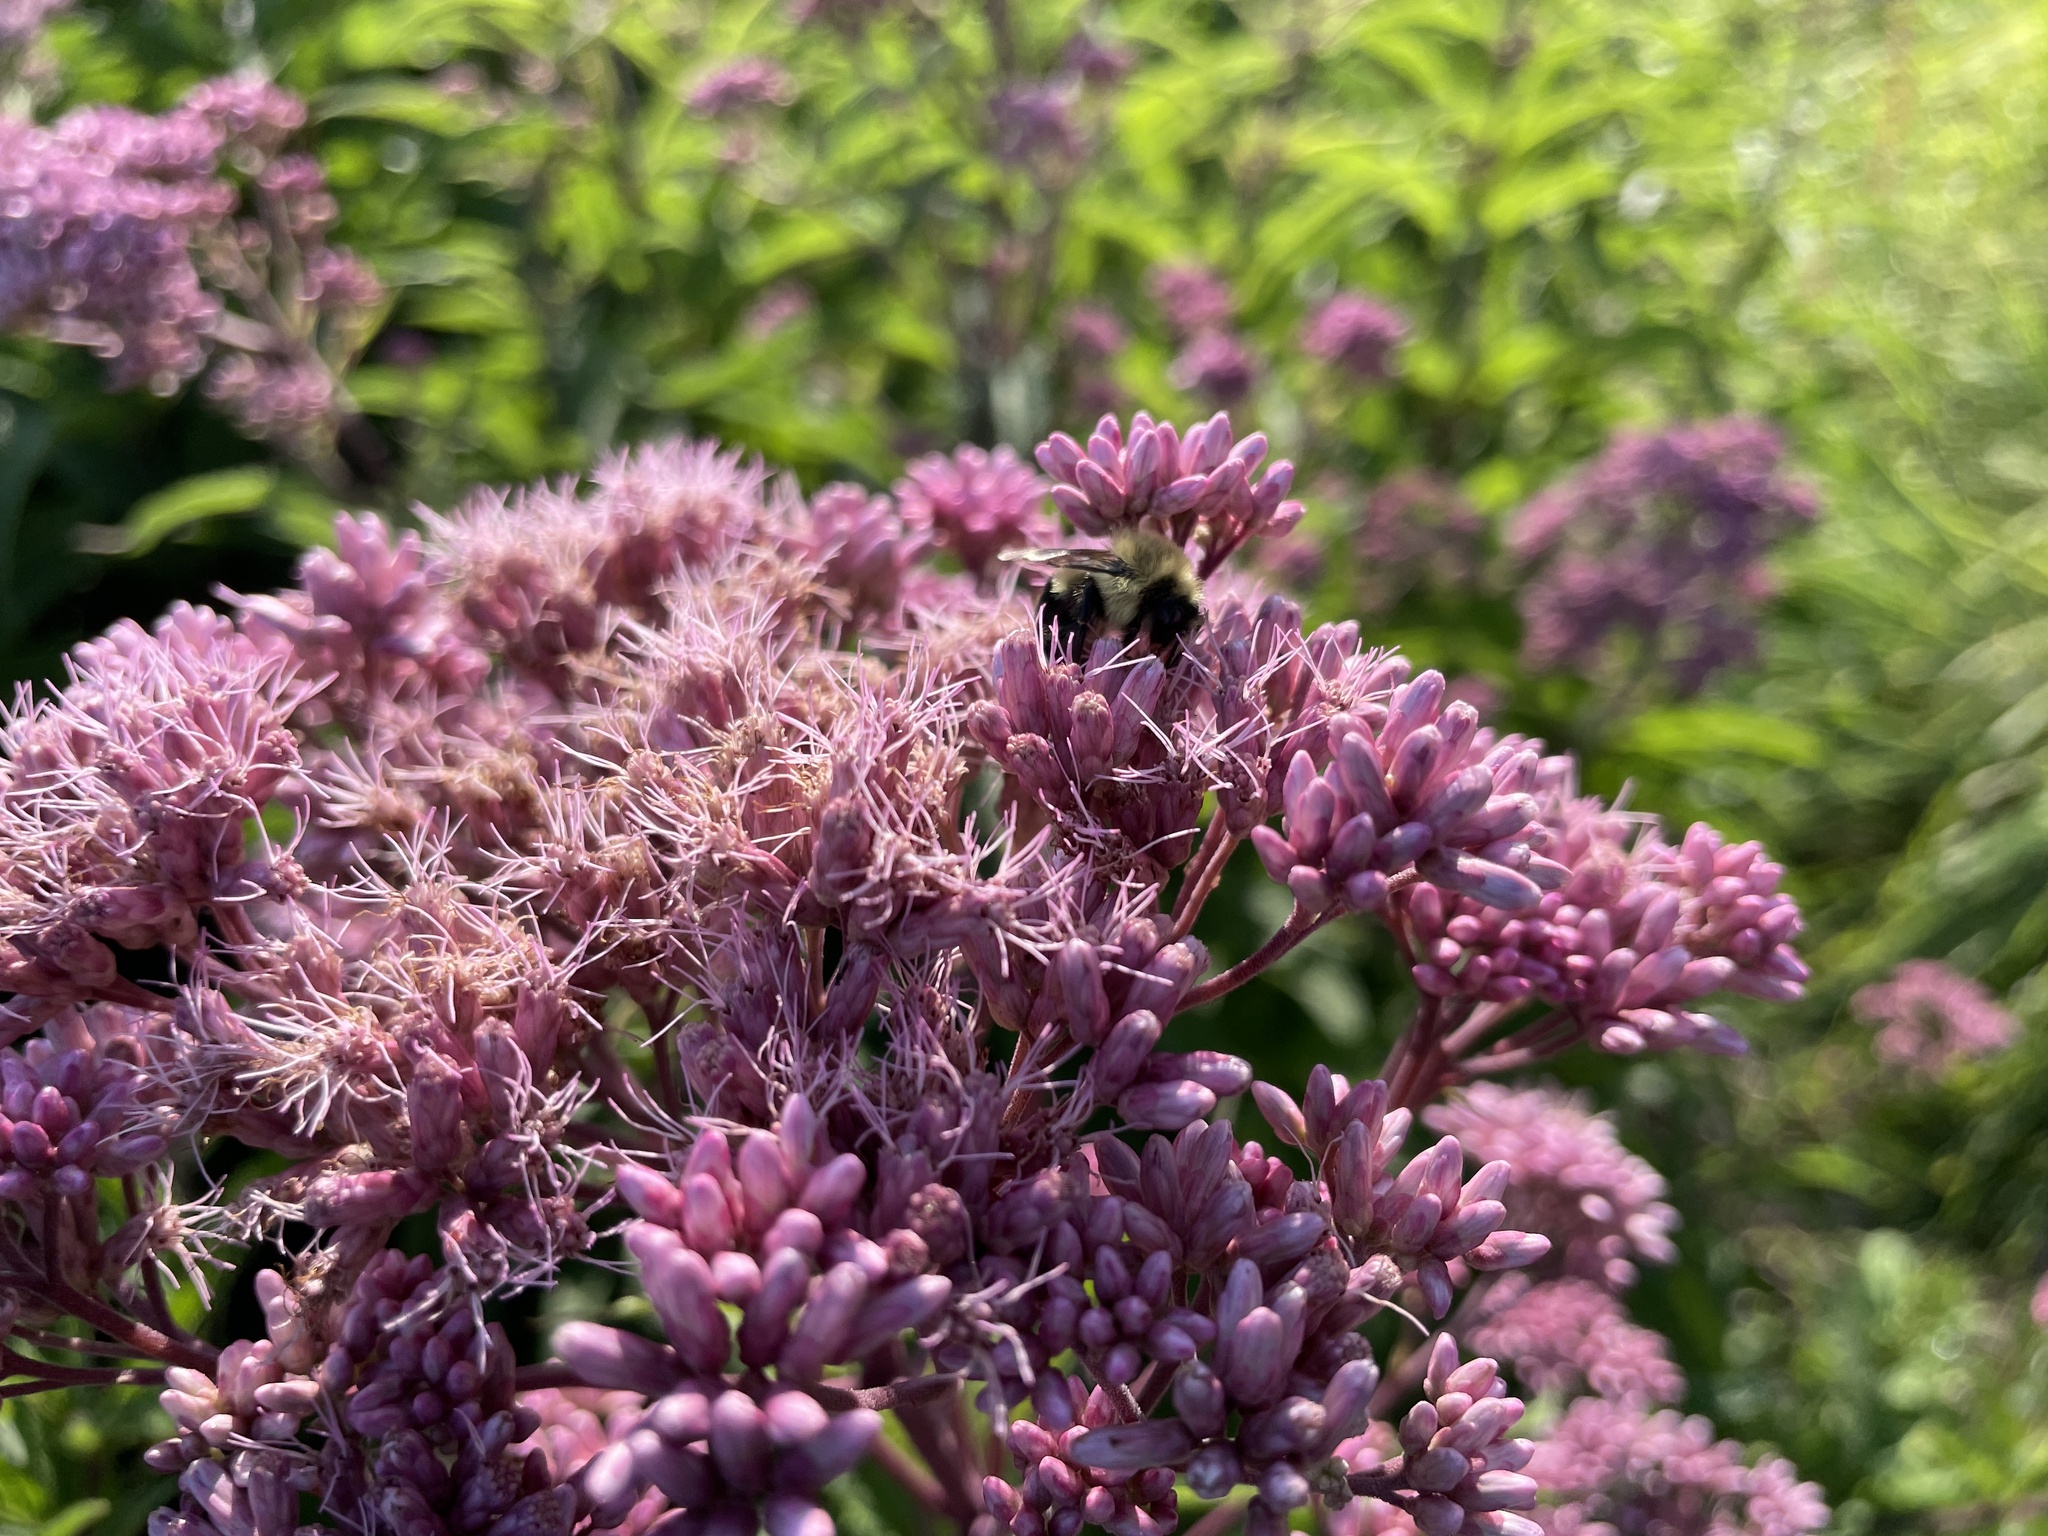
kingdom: Animalia
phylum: Arthropoda
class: Insecta
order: Hymenoptera
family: Apidae
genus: Bombus
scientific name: Bombus impatiens
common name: Common eastern bumble bee
